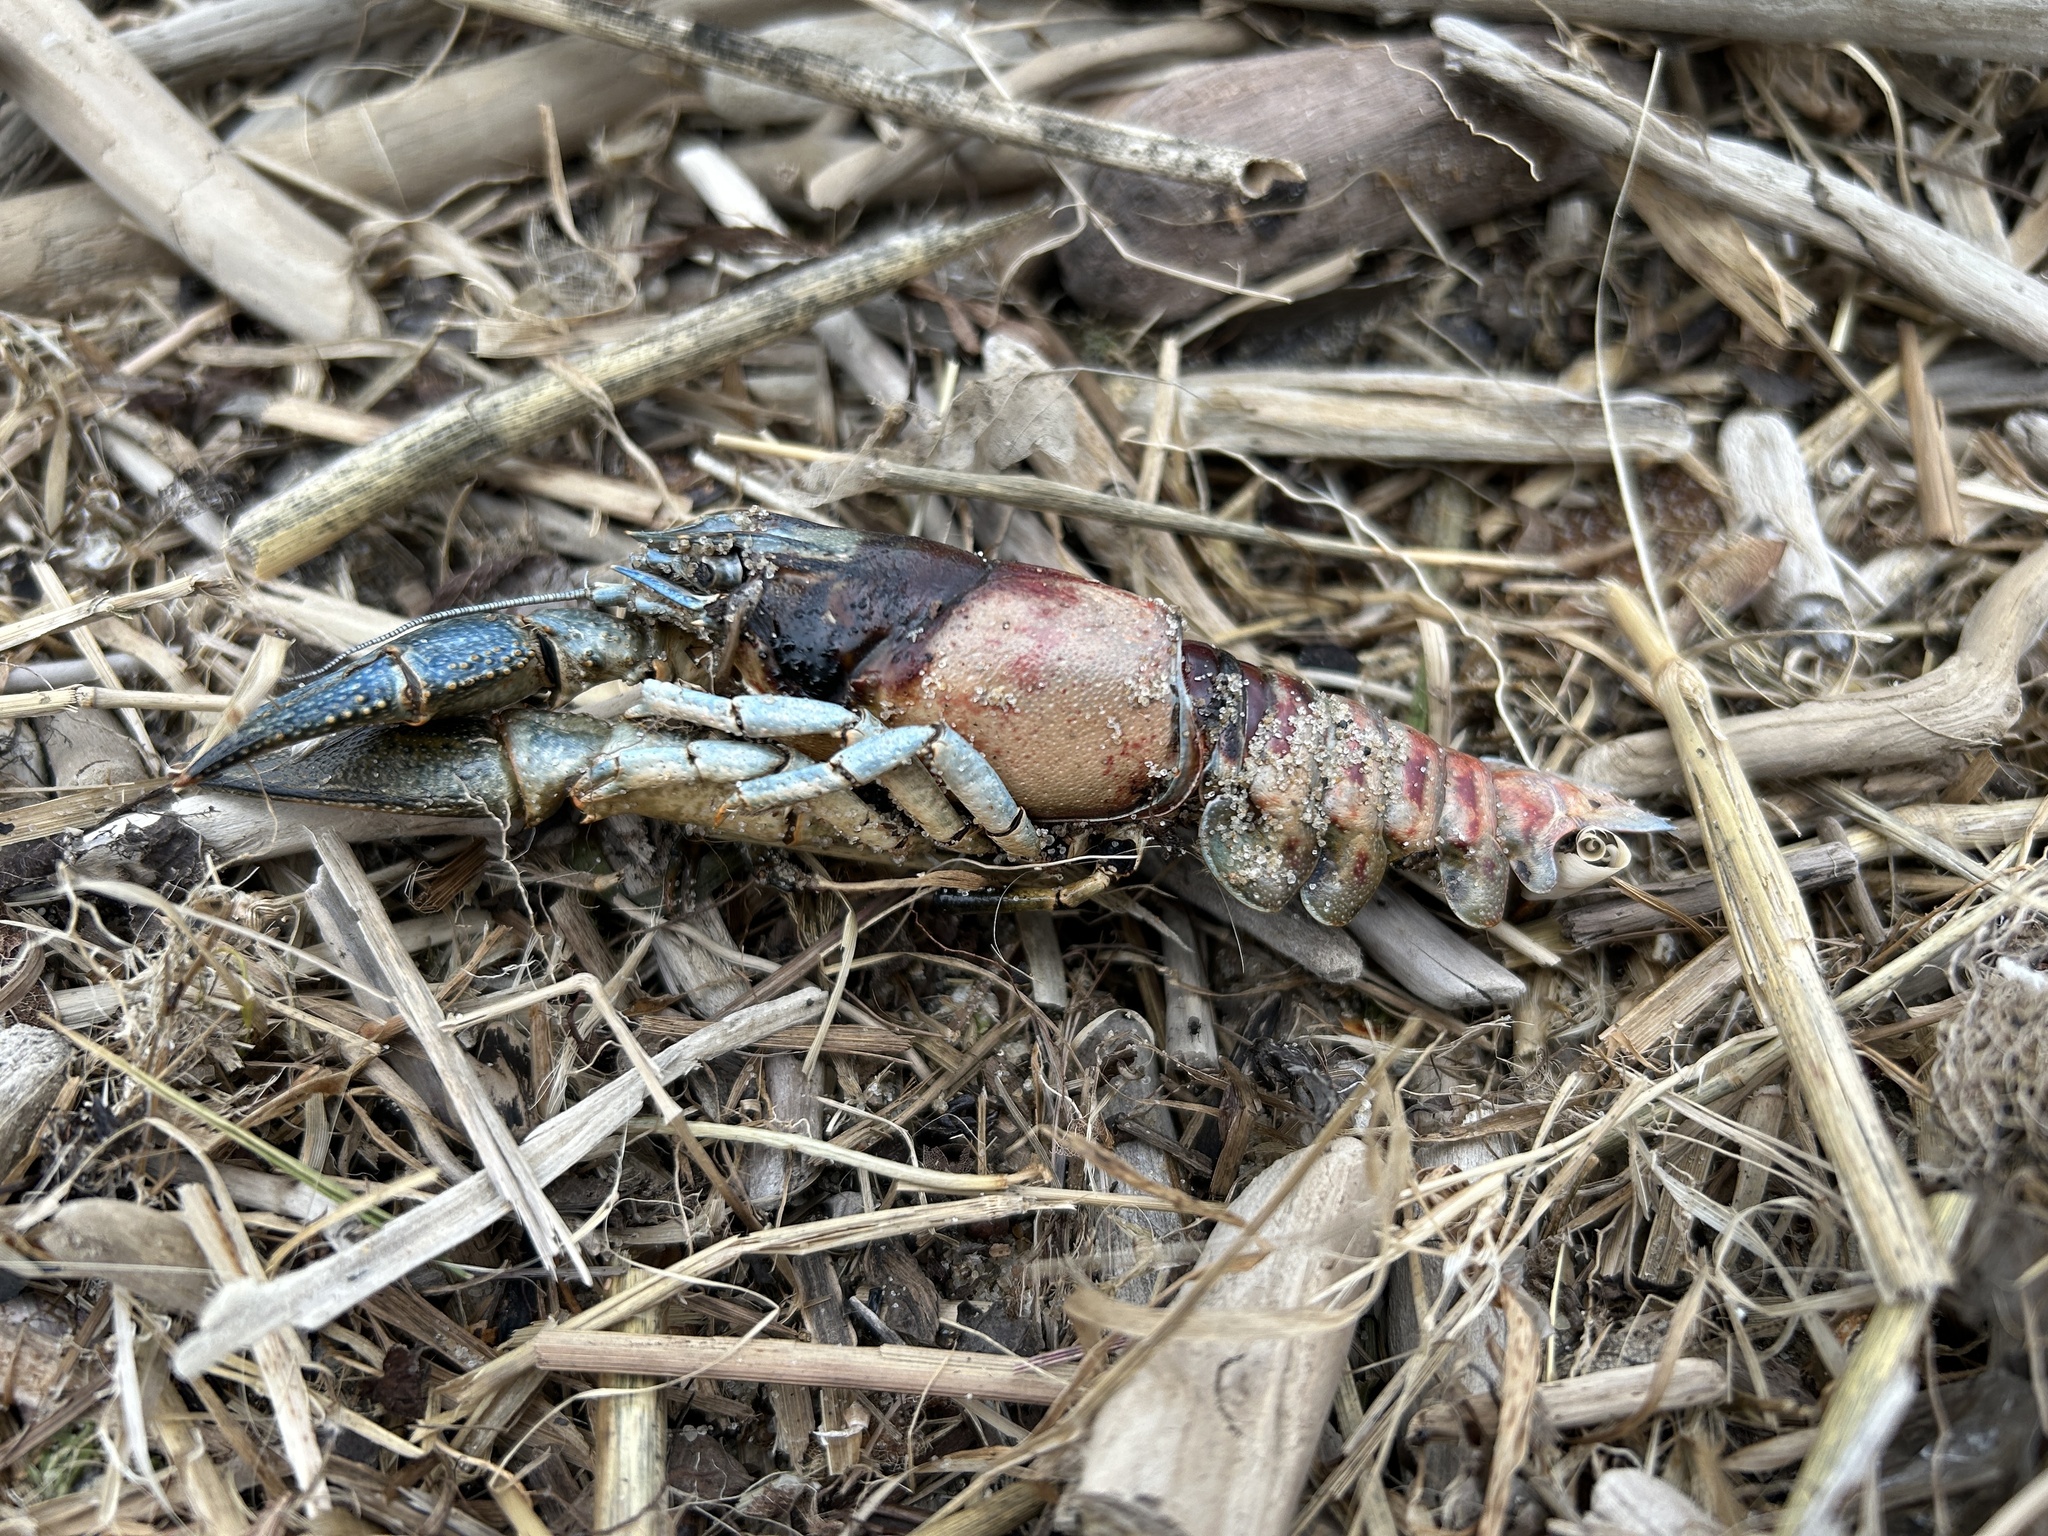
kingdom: Animalia
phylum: Arthropoda
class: Malacostraca
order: Decapoda
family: Cambaridae
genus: Faxonius
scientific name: Faxonius limosus
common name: American crayfish
